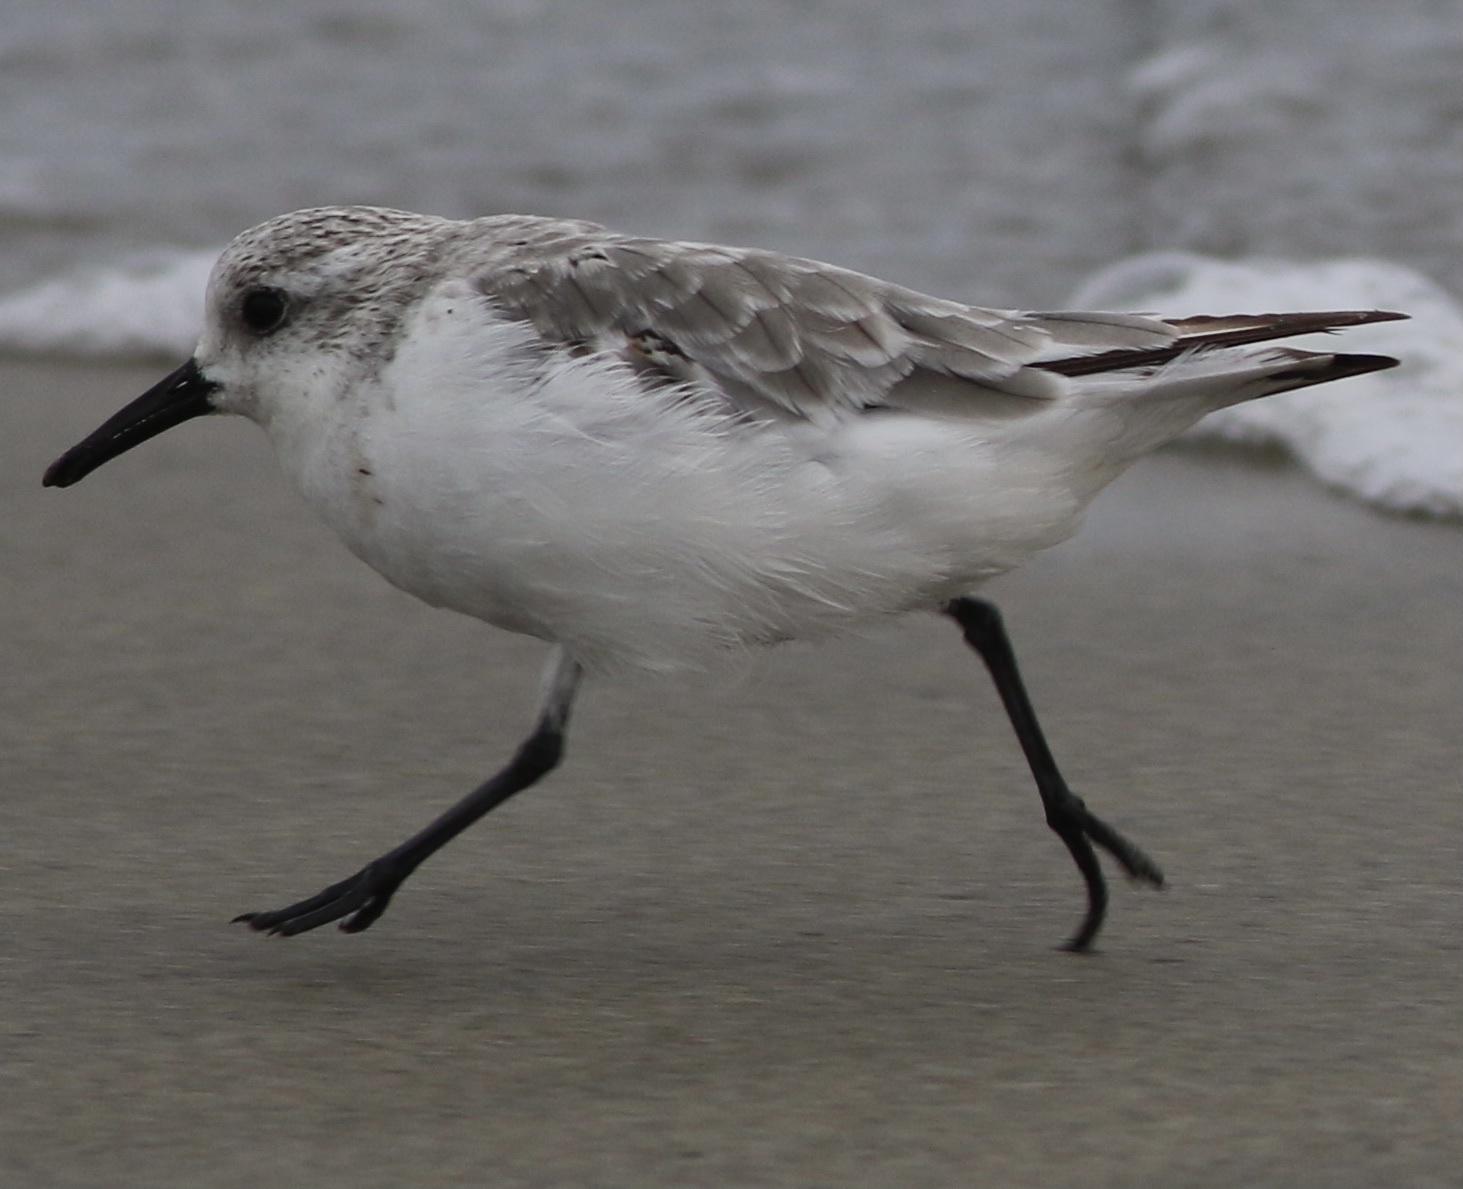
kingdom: Animalia
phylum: Chordata
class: Aves
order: Charadriiformes
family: Scolopacidae
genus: Calidris
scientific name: Calidris alba
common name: Sanderling
